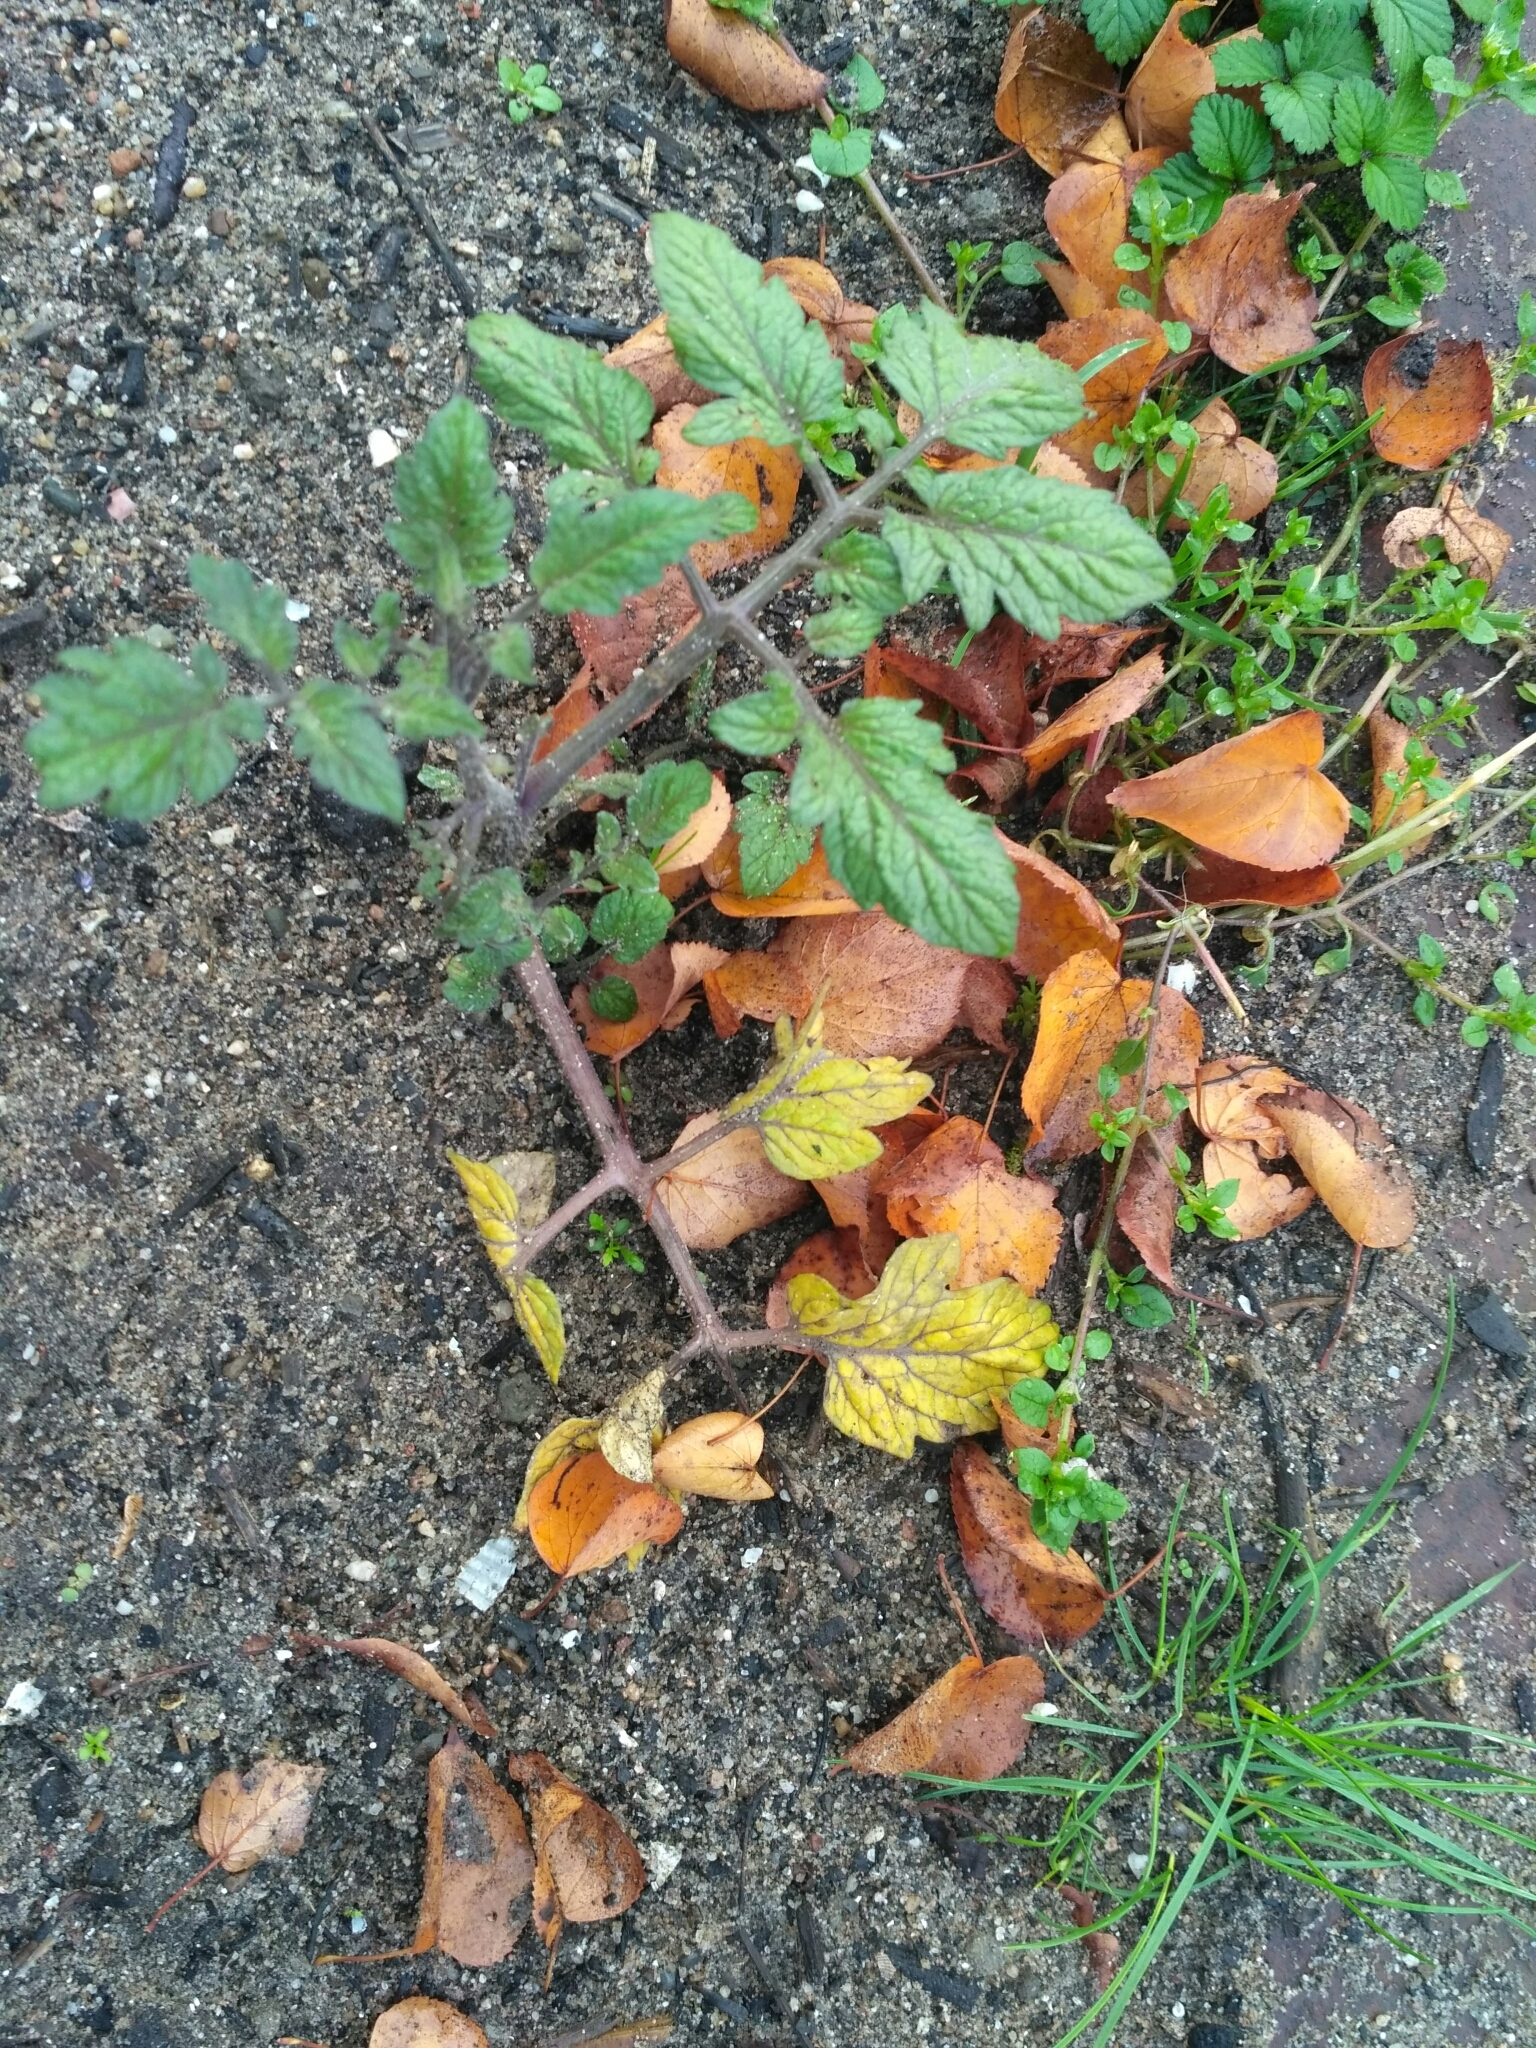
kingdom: Plantae
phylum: Tracheophyta
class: Magnoliopsida
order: Solanales
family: Solanaceae
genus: Solanum
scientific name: Solanum lycopersicum
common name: Garden tomato
